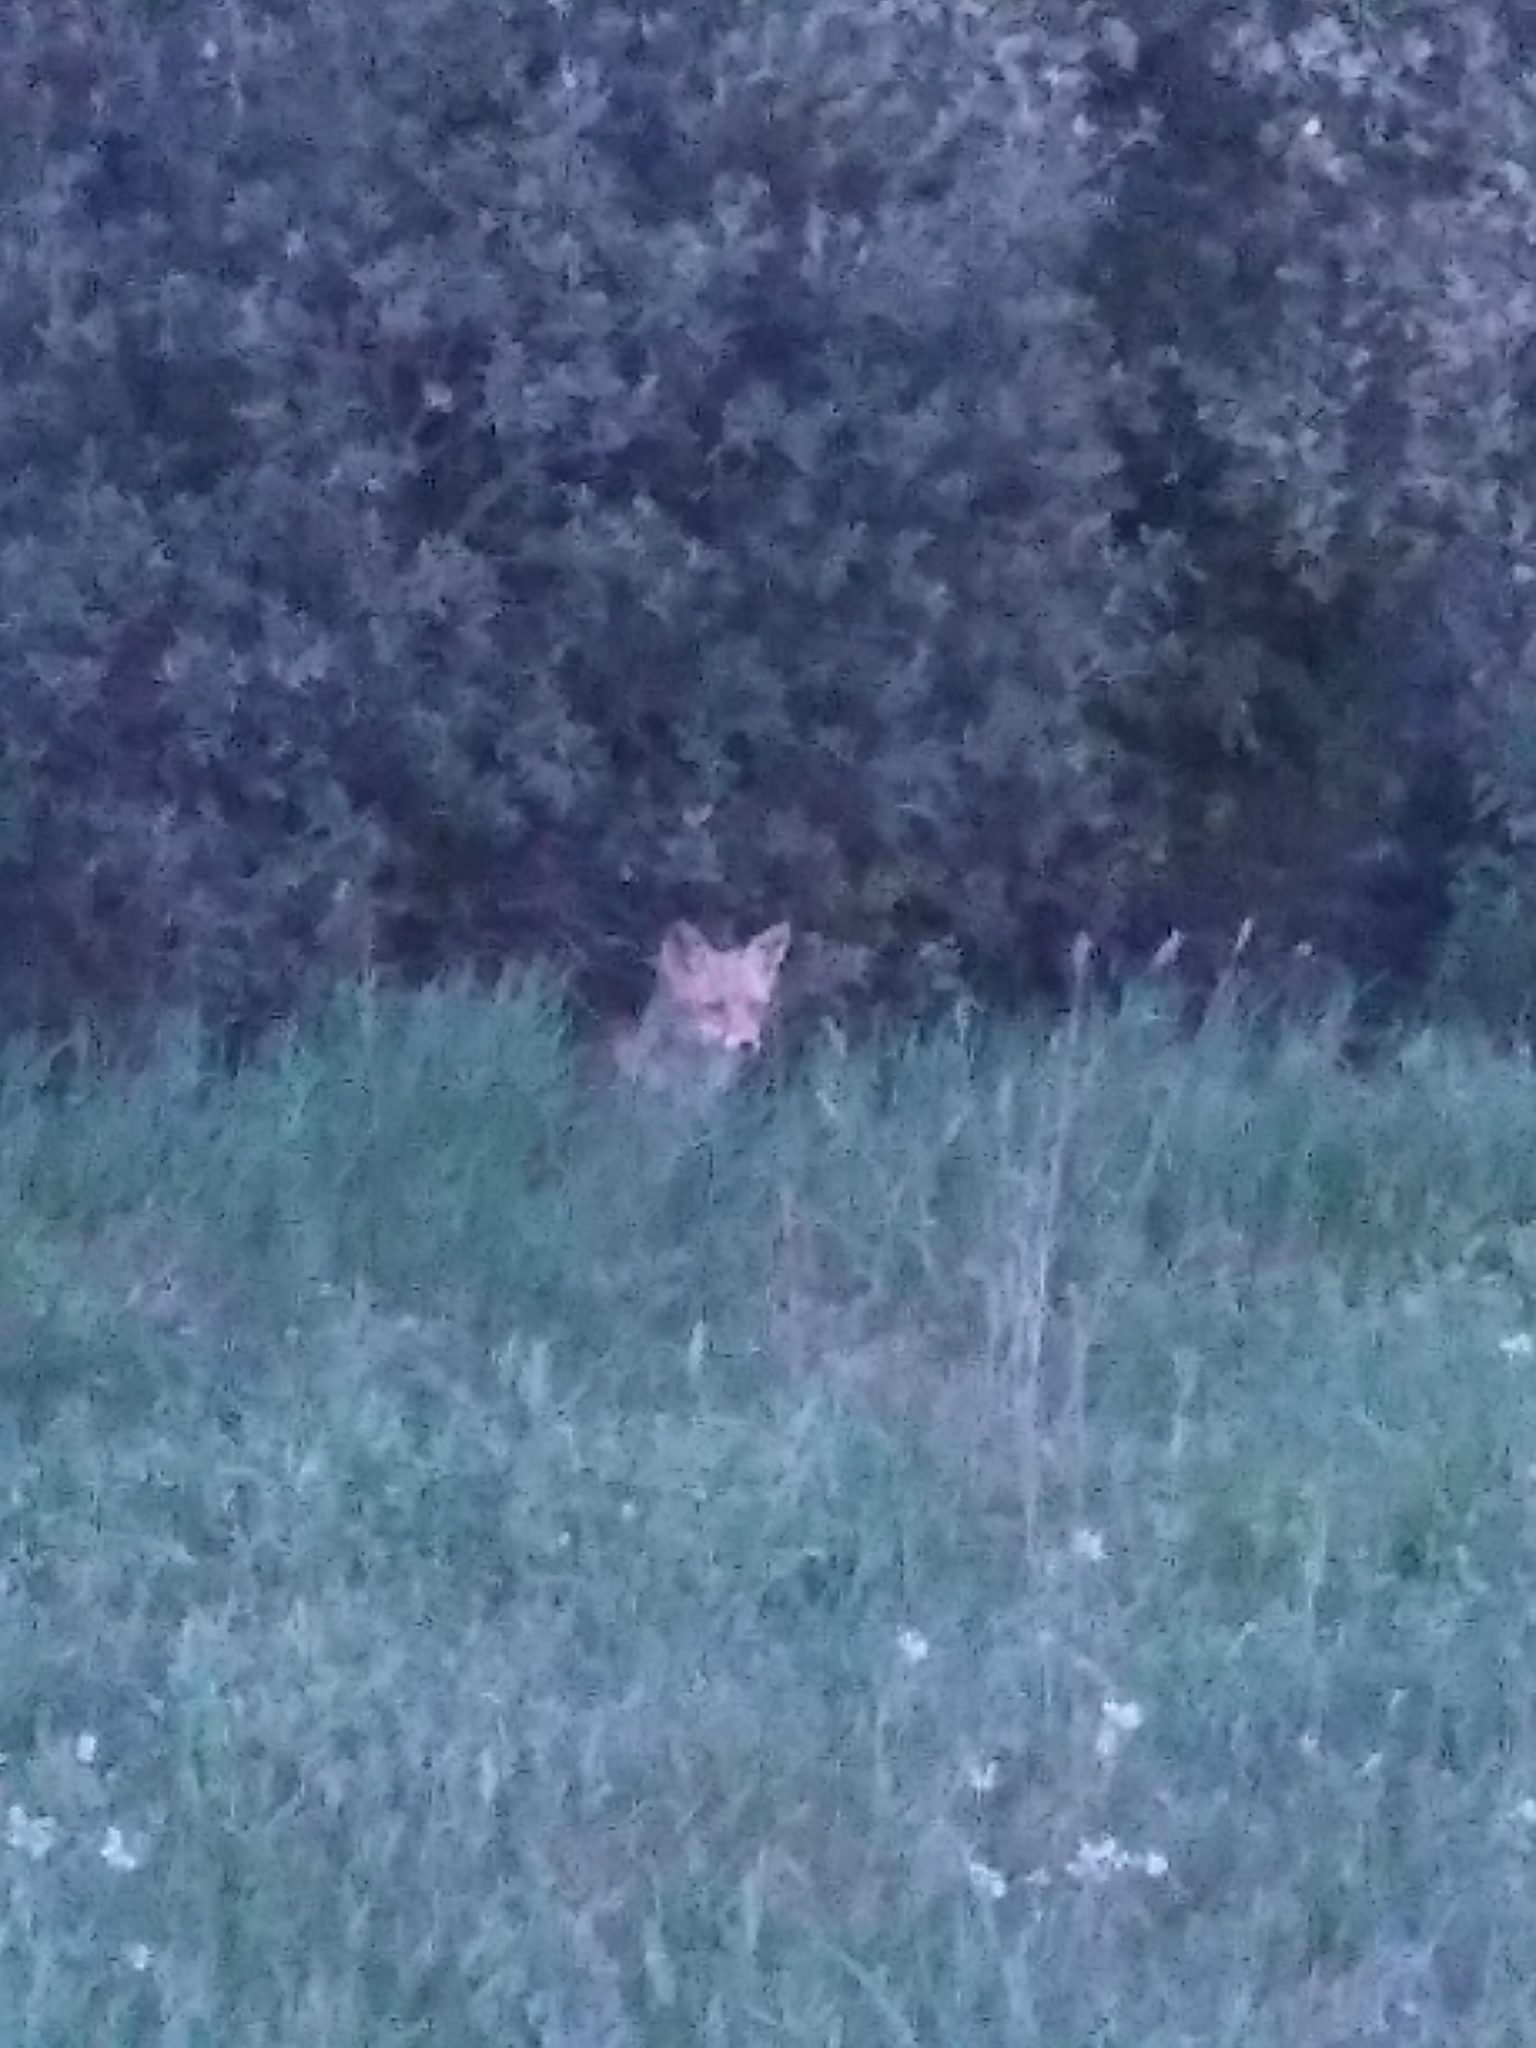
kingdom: Animalia
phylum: Chordata
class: Mammalia
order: Carnivora
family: Canidae
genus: Vulpes
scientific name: Vulpes vulpes
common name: Red fox
